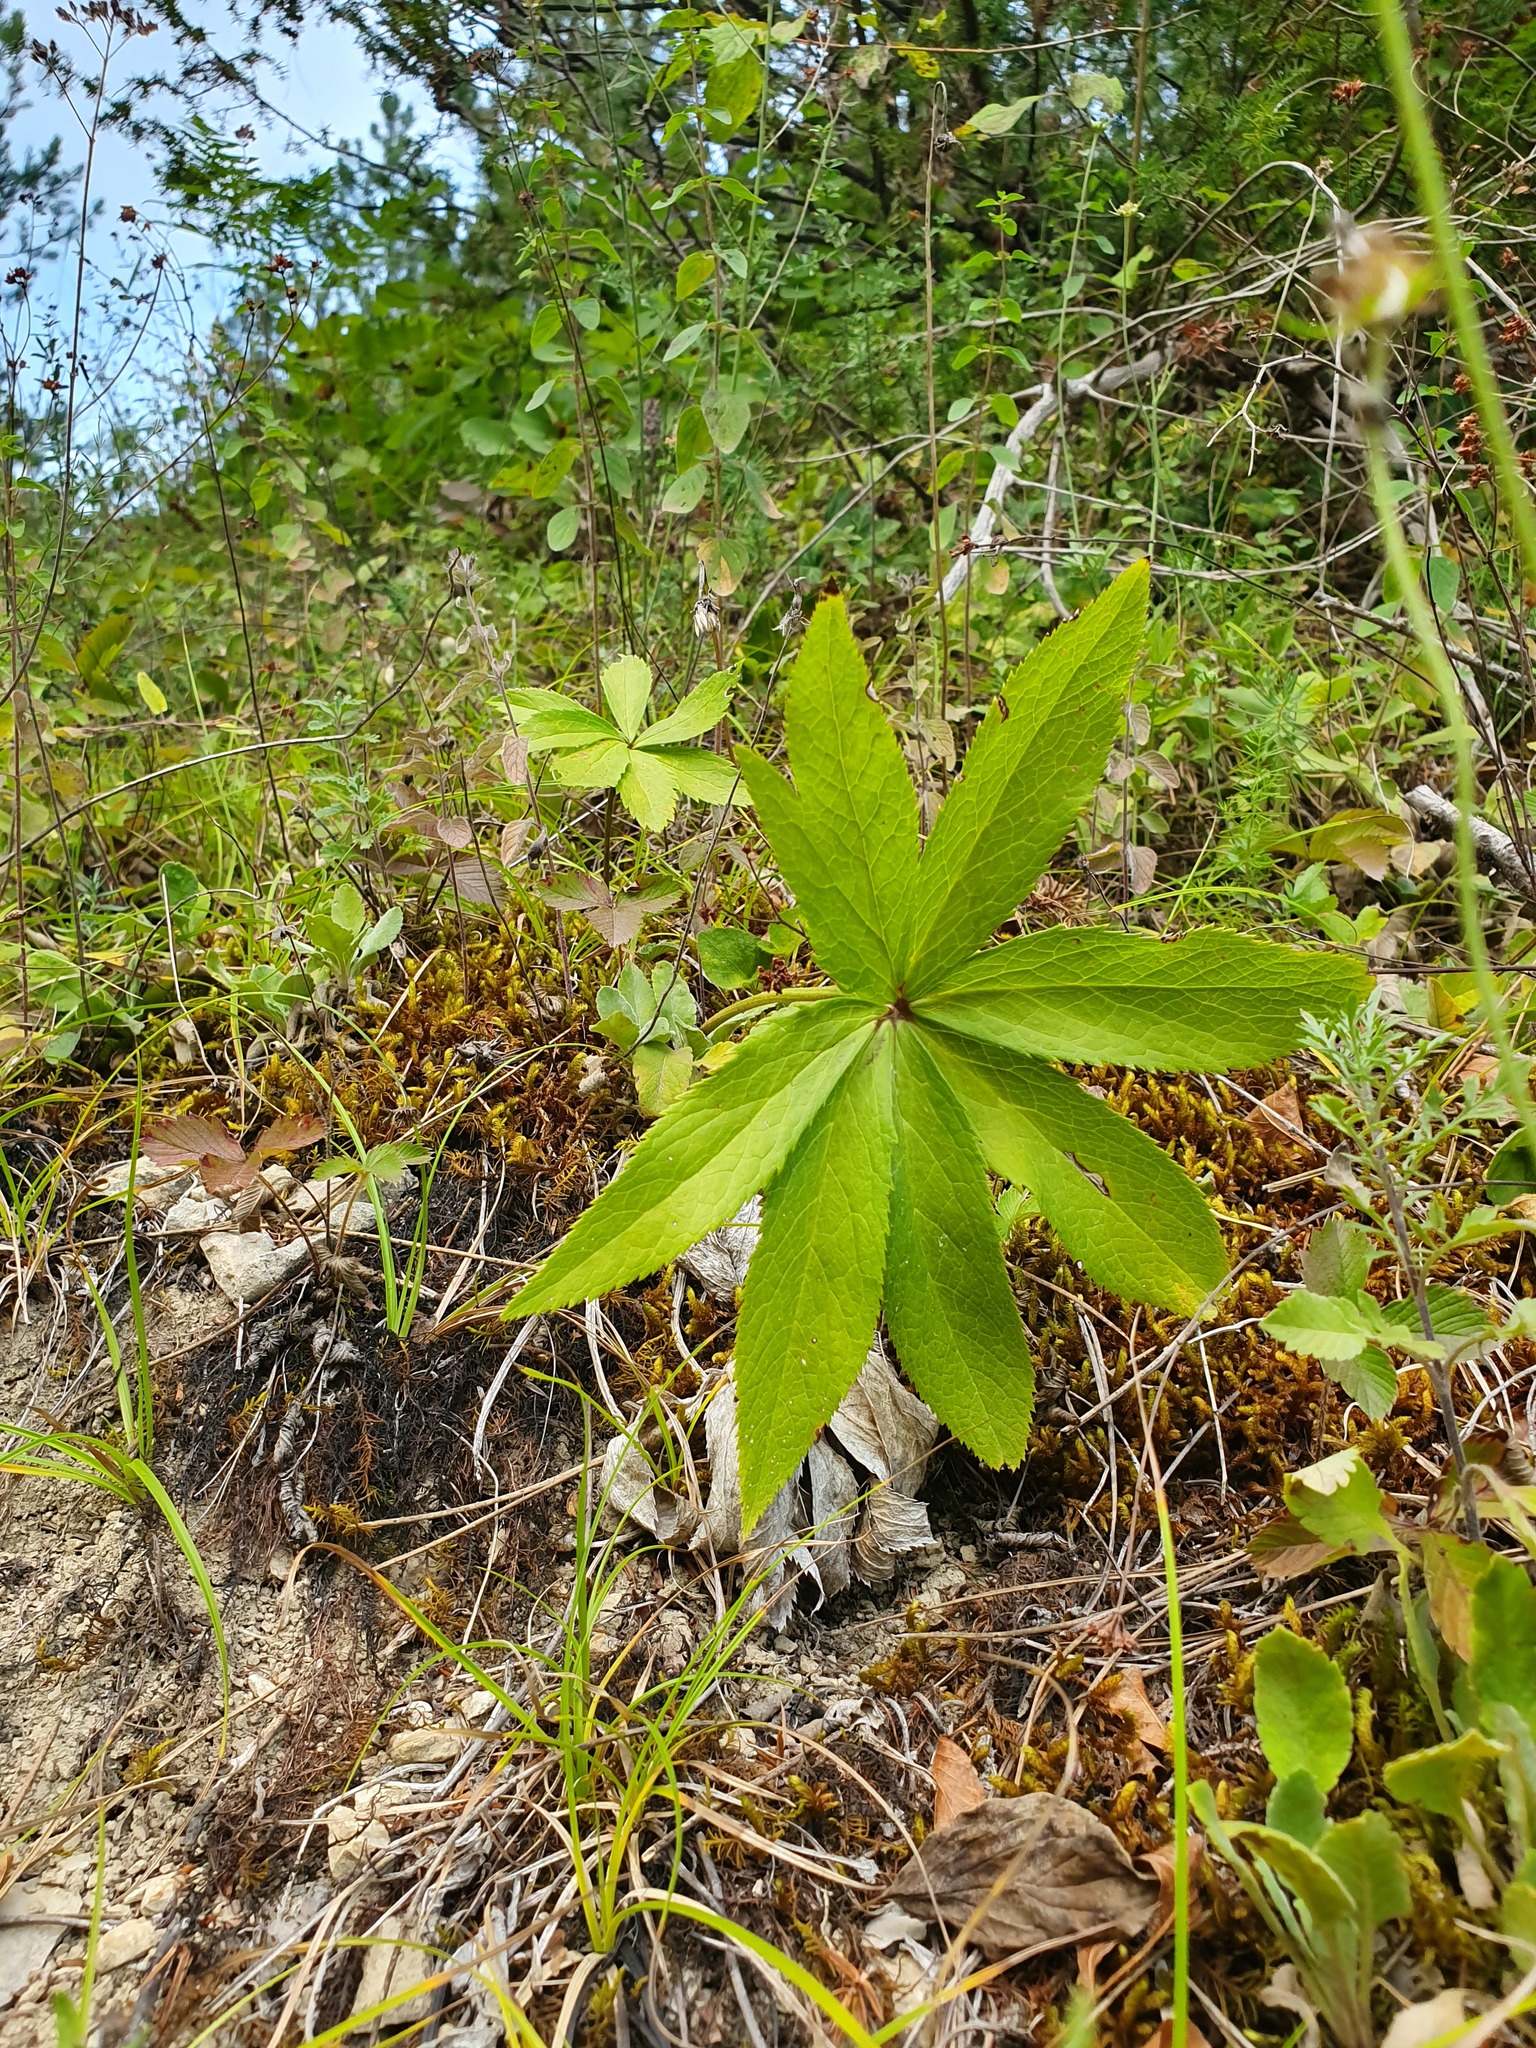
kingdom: Plantae
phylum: Tracheophyta
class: Magnoliopsida
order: Ranunculales
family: Ranunculaceae
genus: Helleborus
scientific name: Helleborus odorus
